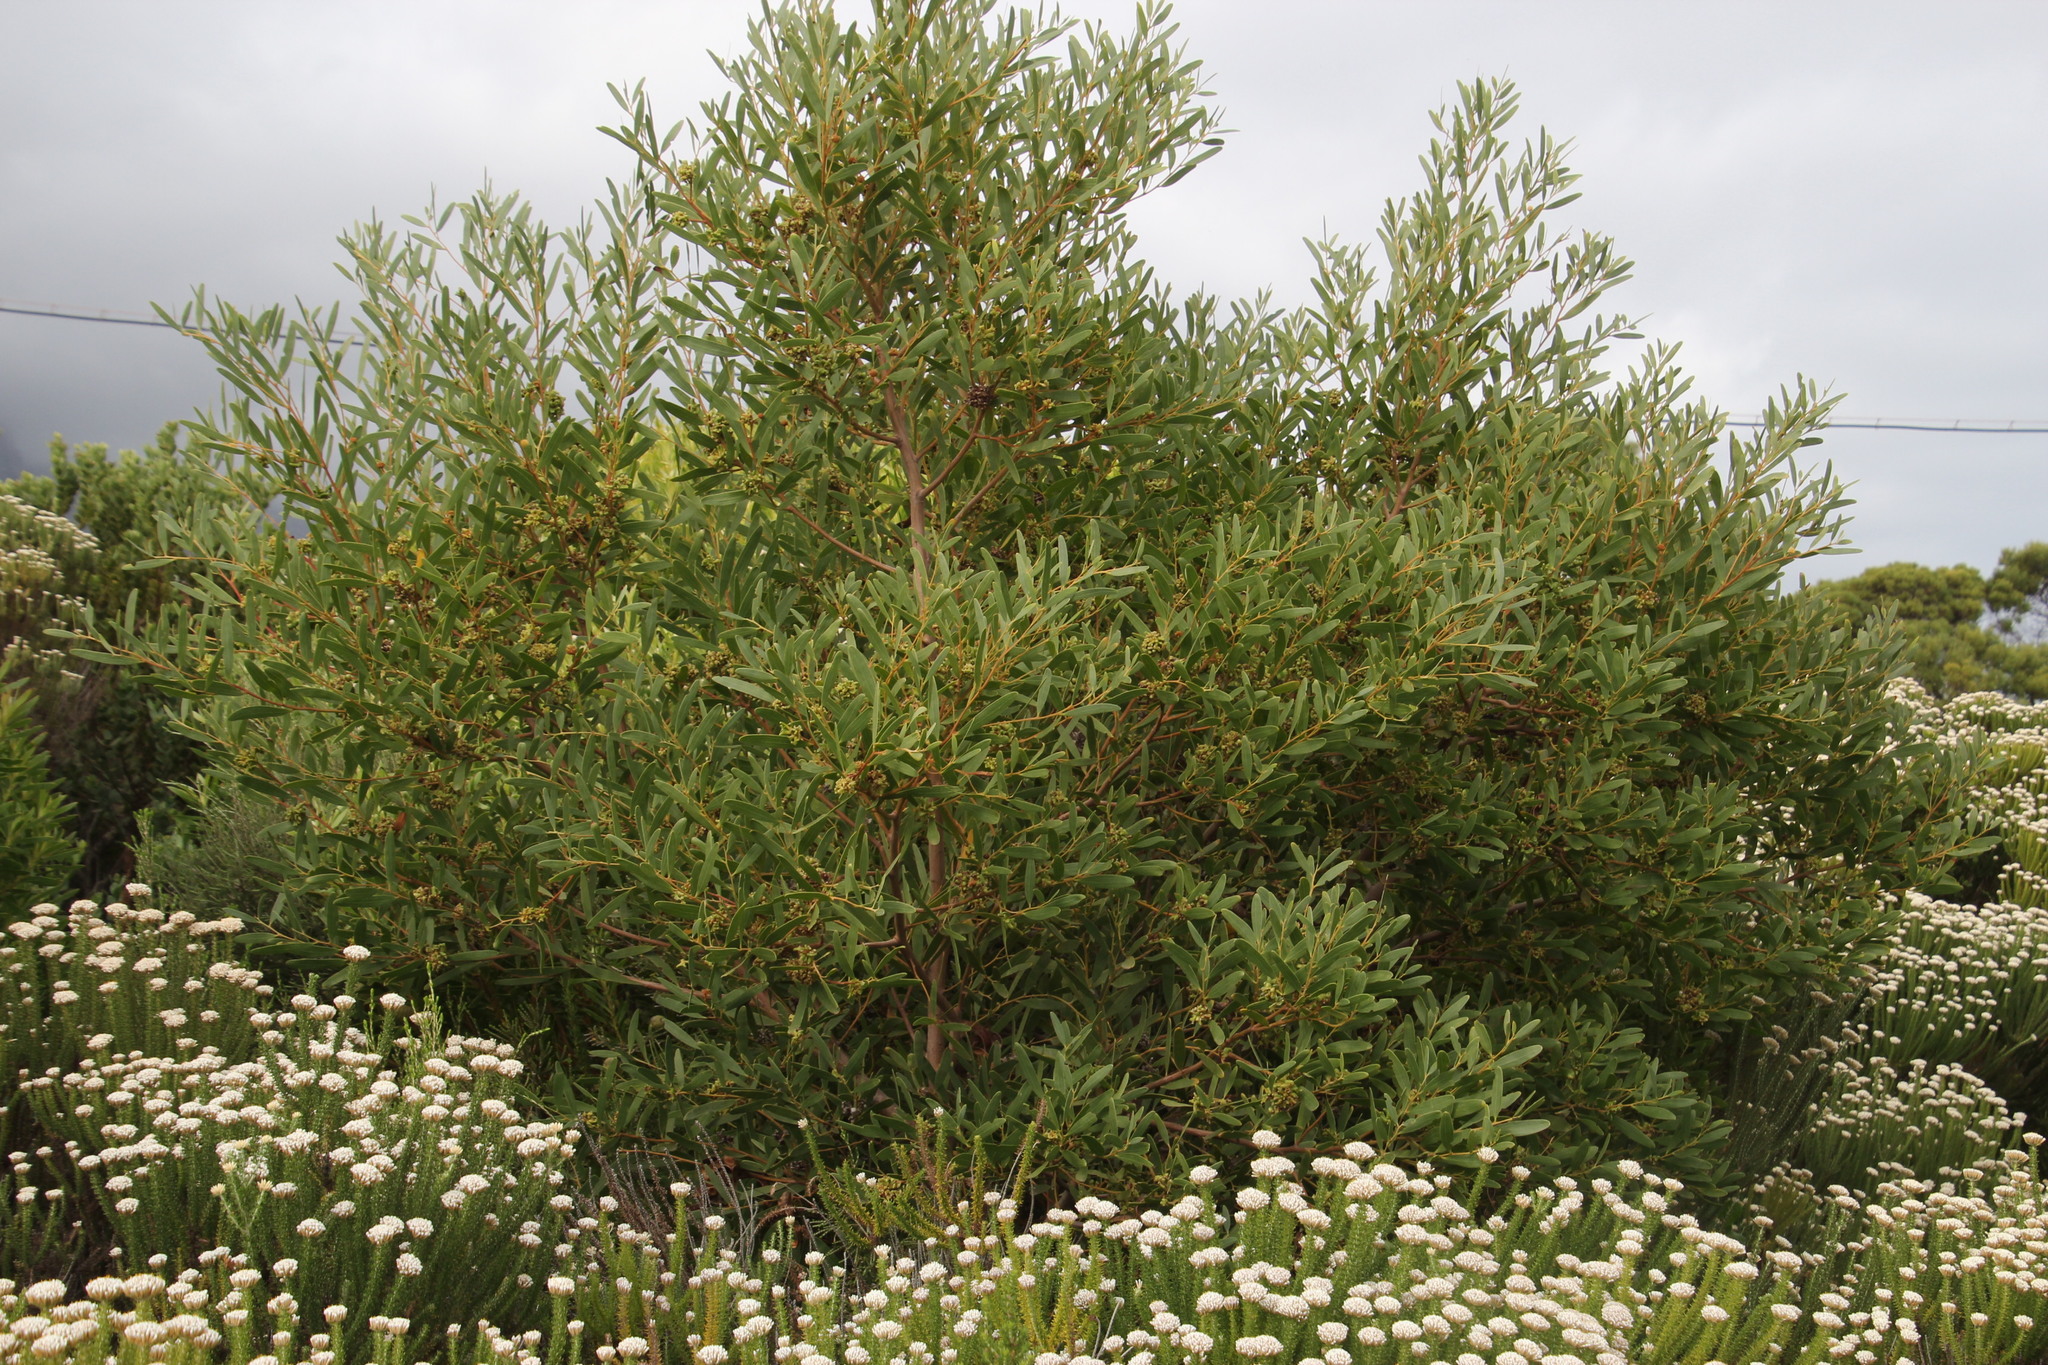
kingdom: Plantae
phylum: Tracheophyta
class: Magnoliopsida
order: Fabales
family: Fabaceae
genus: Acacia
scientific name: Acacia cyclops
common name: Coastal wattle
